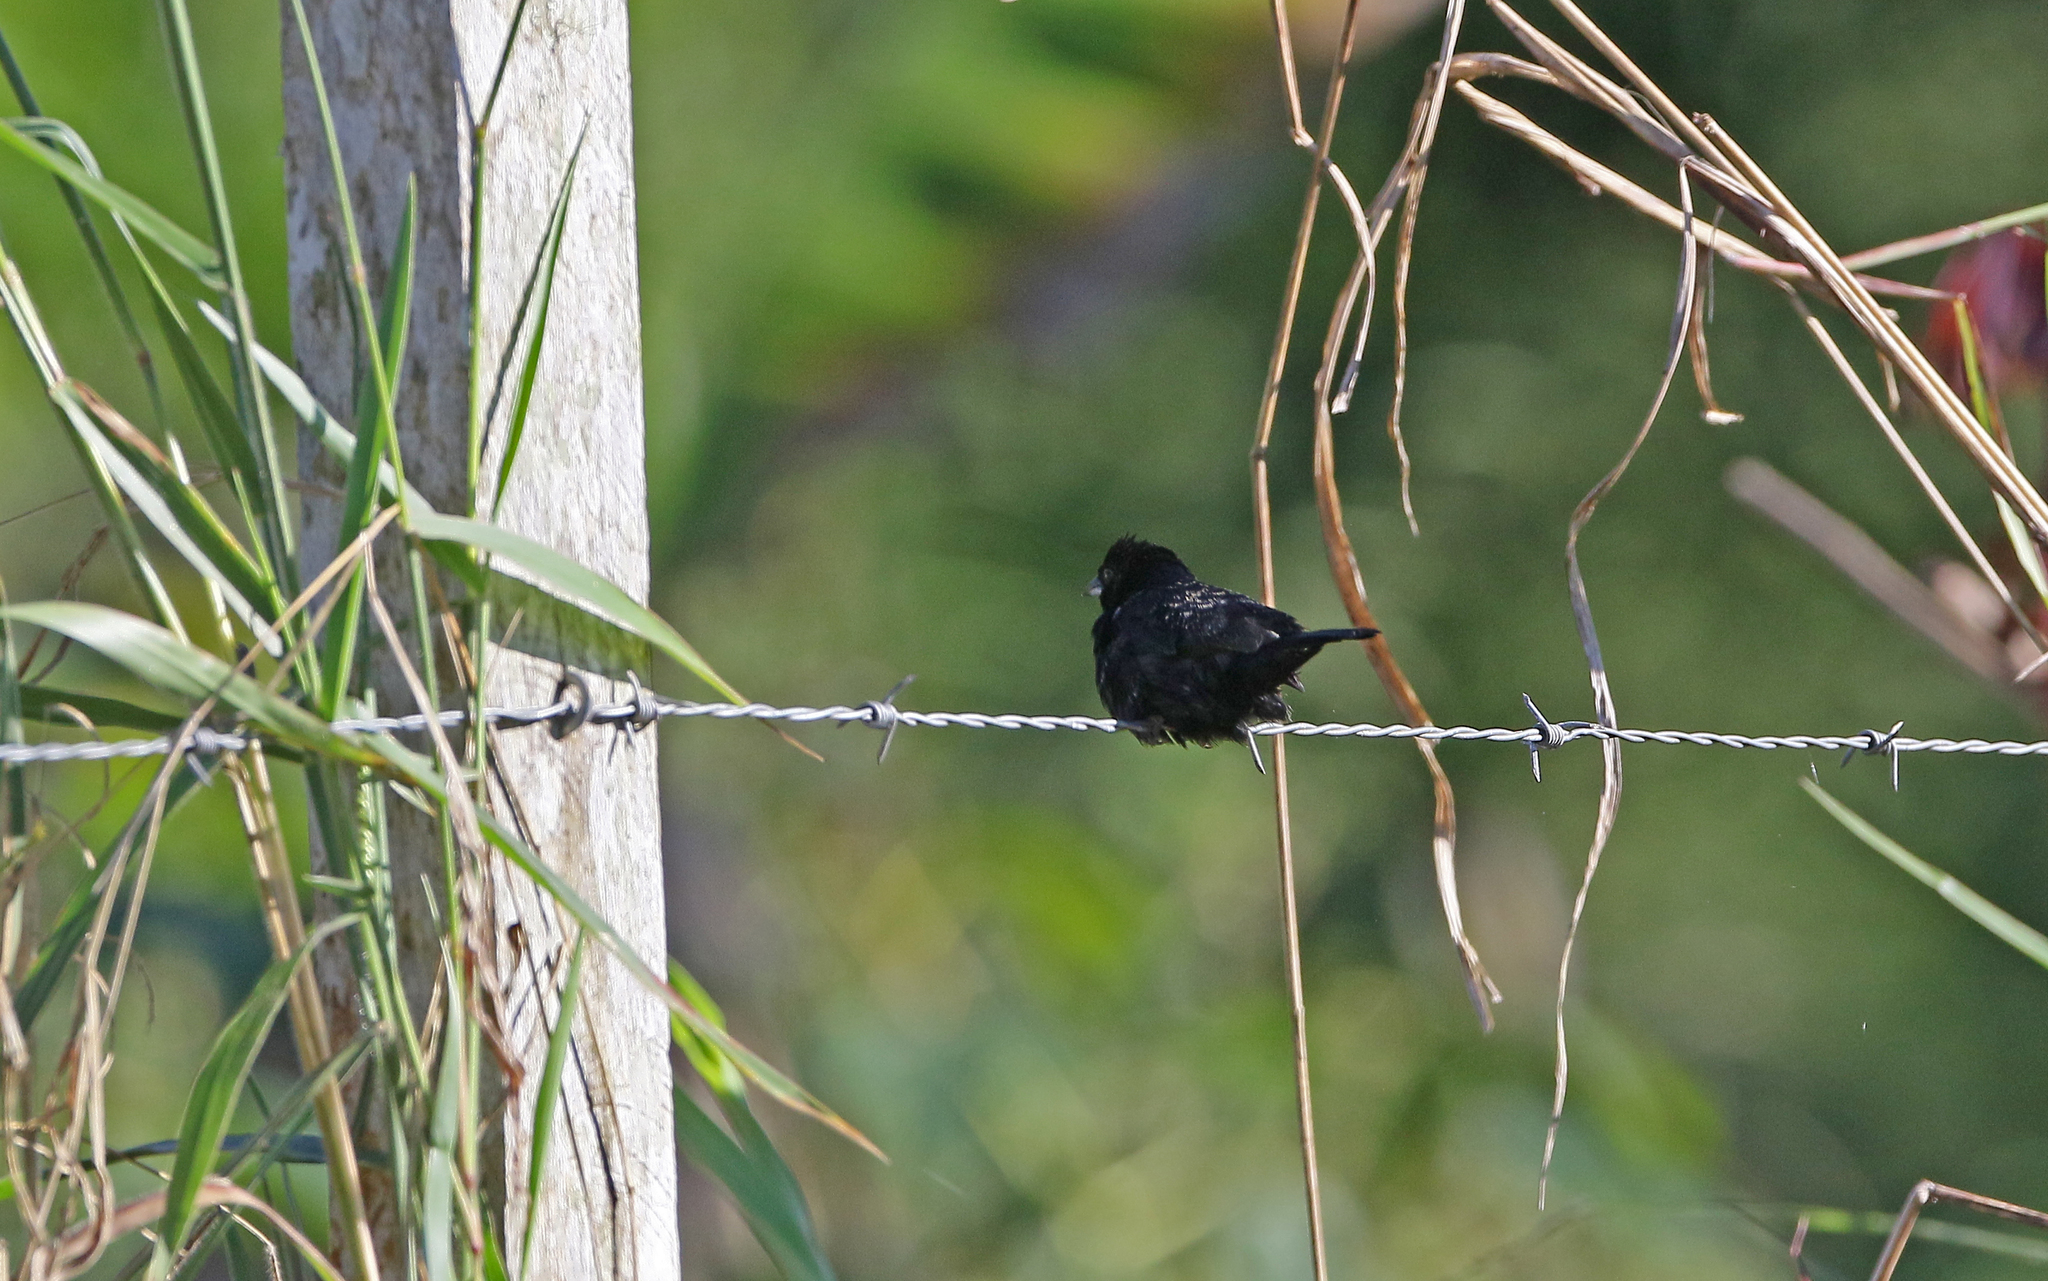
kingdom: Animalia
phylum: Chordata
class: Aves
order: Passeriformes
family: Thraupidae
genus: Volatinia
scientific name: Volatinia jacarina
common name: Blue-black grassquit
